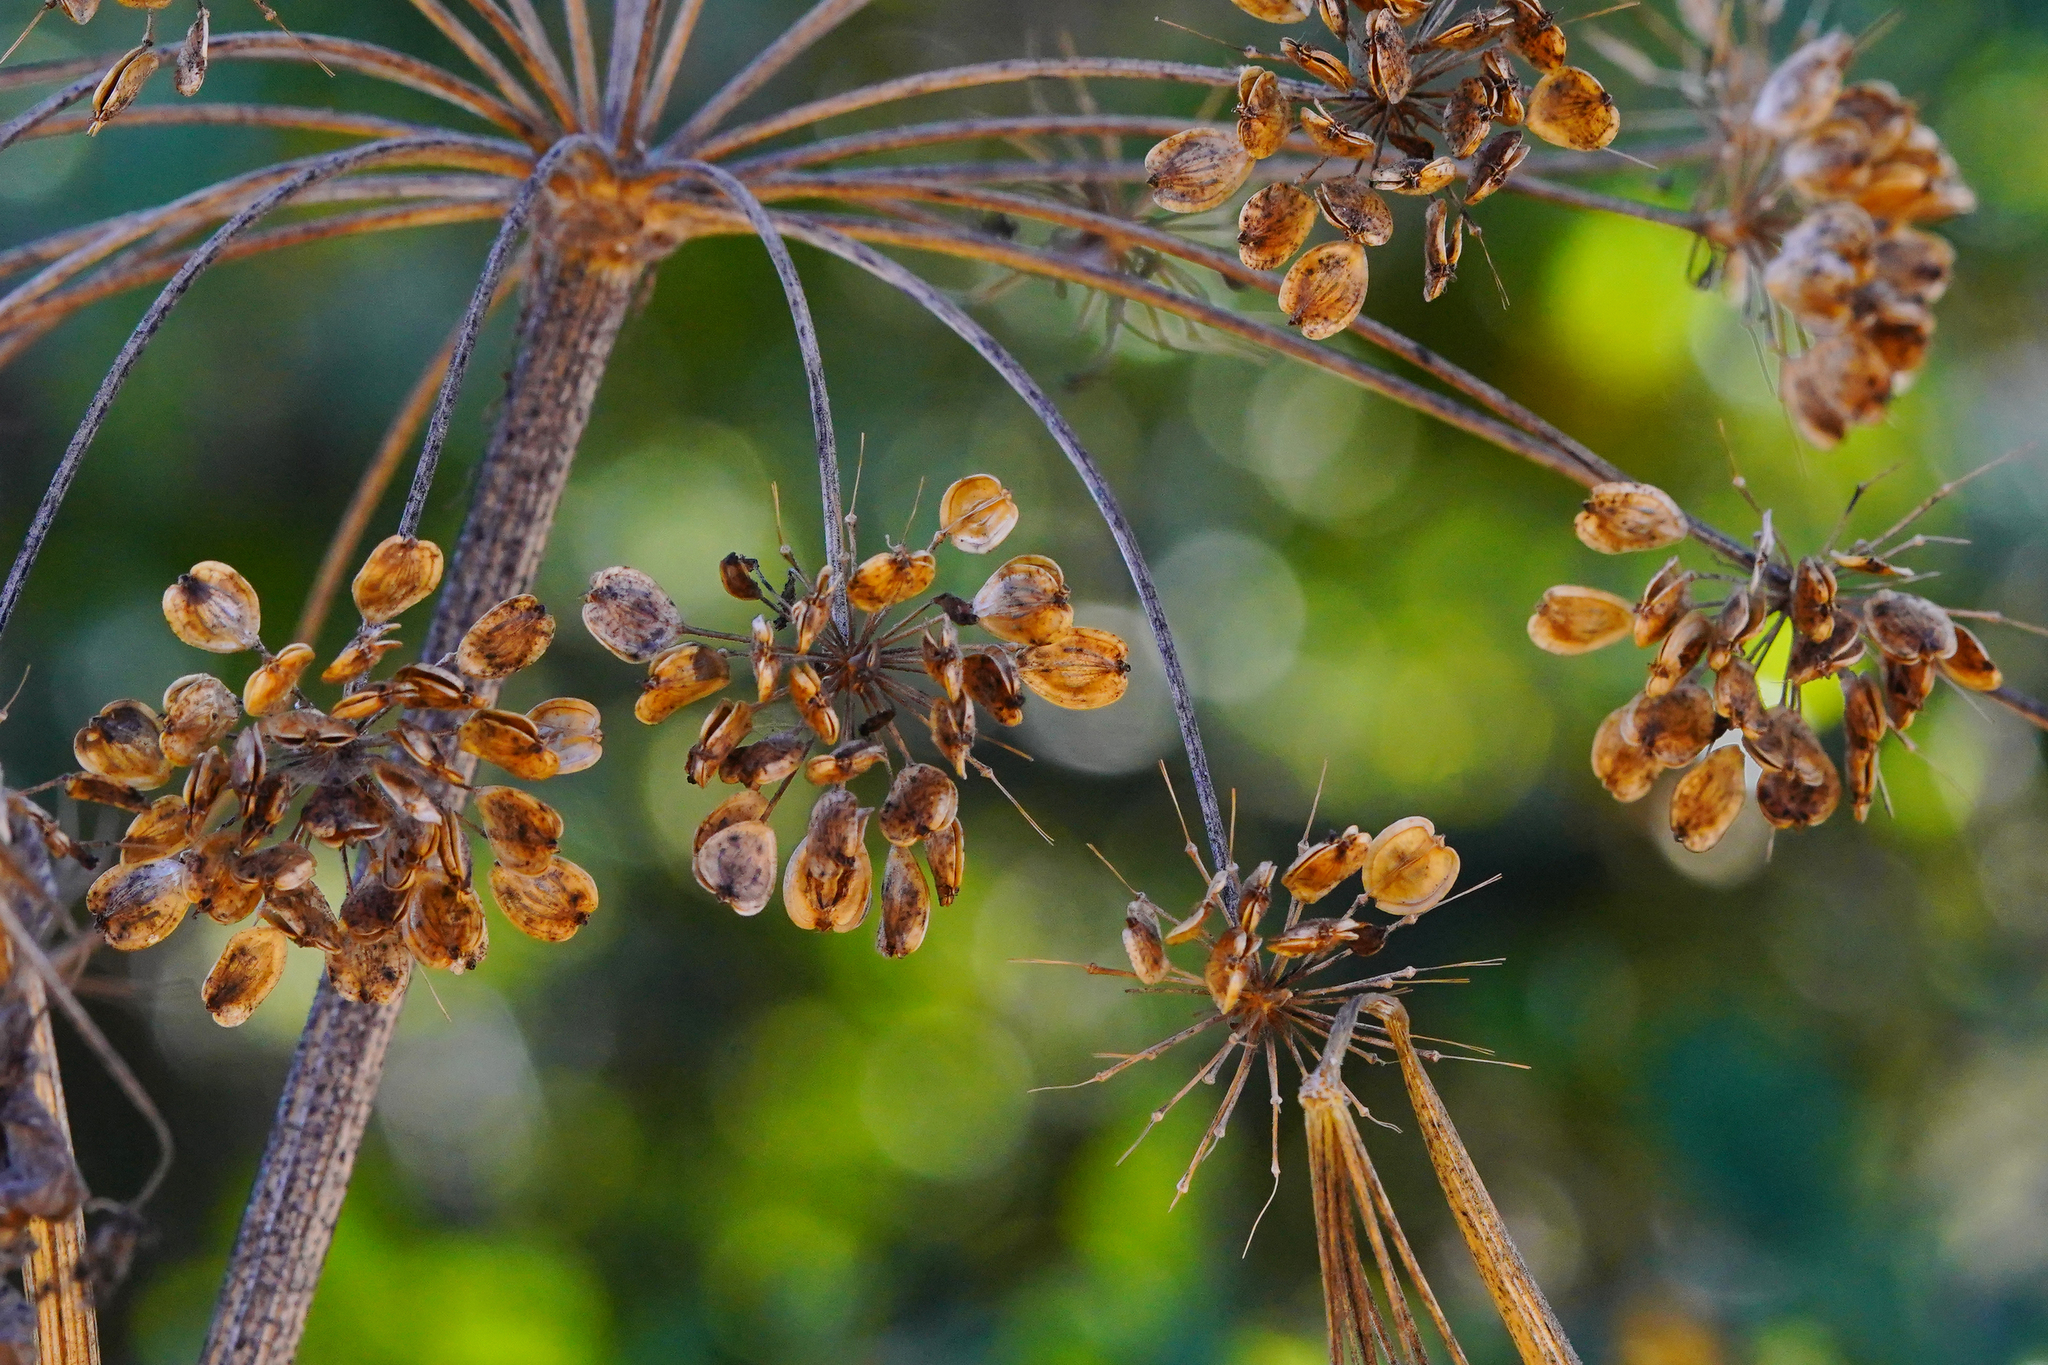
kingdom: Plantae
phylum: Tracheophyta
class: Magnoliopsida
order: Apiales
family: Apiaceae
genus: Heracleum
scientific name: Heracleum maximum
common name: American cow parsnip
